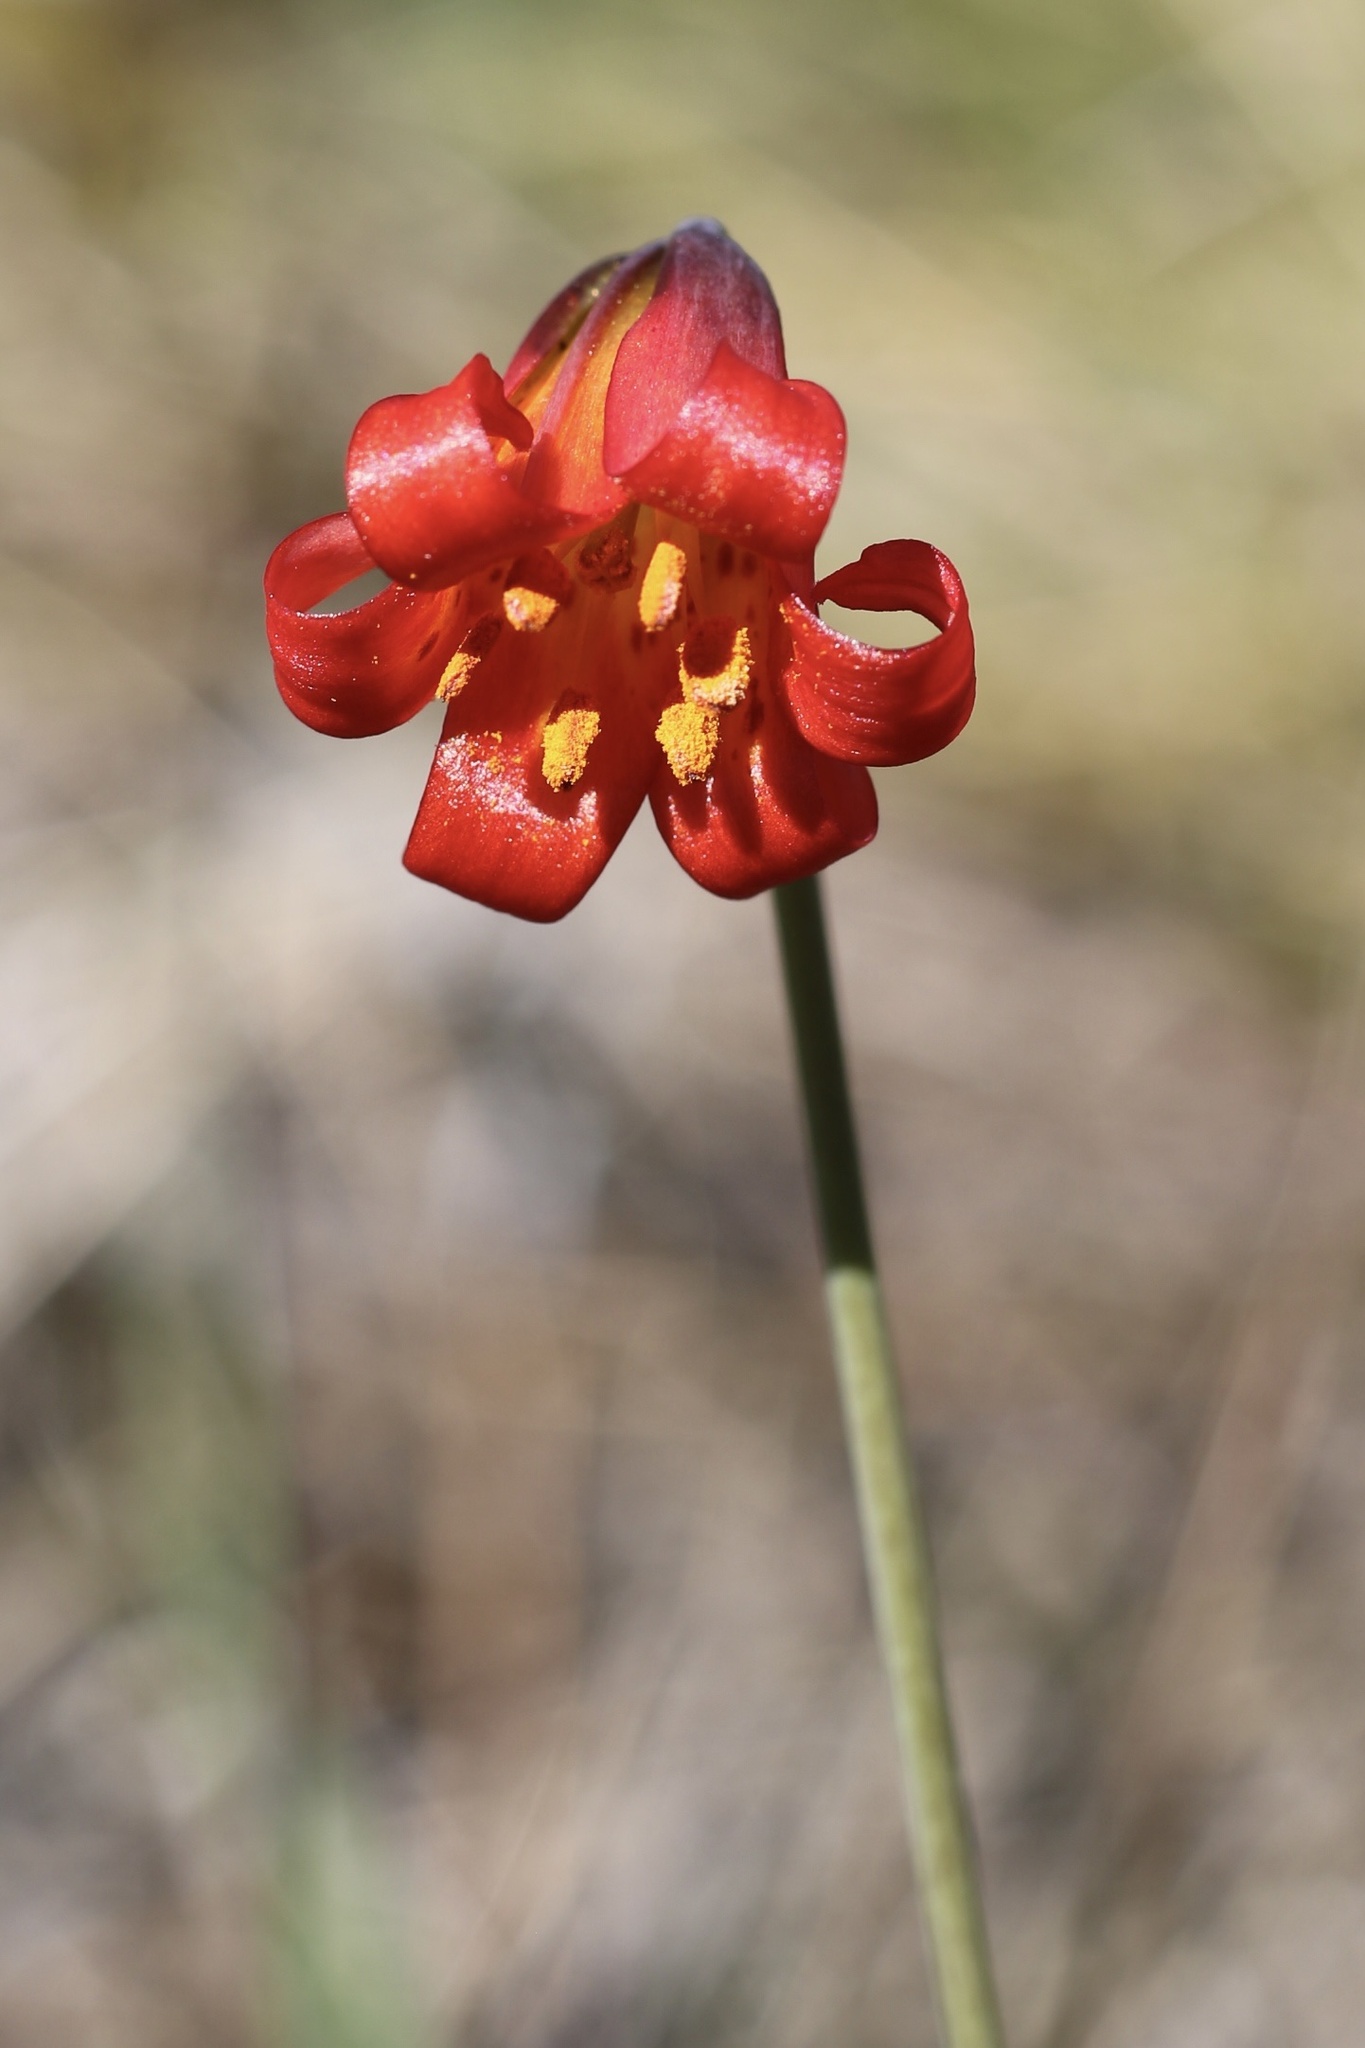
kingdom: Plantae
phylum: Tracheophyta
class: Liliopsida
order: Liliales
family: Liliaceae
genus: Lilium
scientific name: Lilium maritimum
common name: Coastal lily
